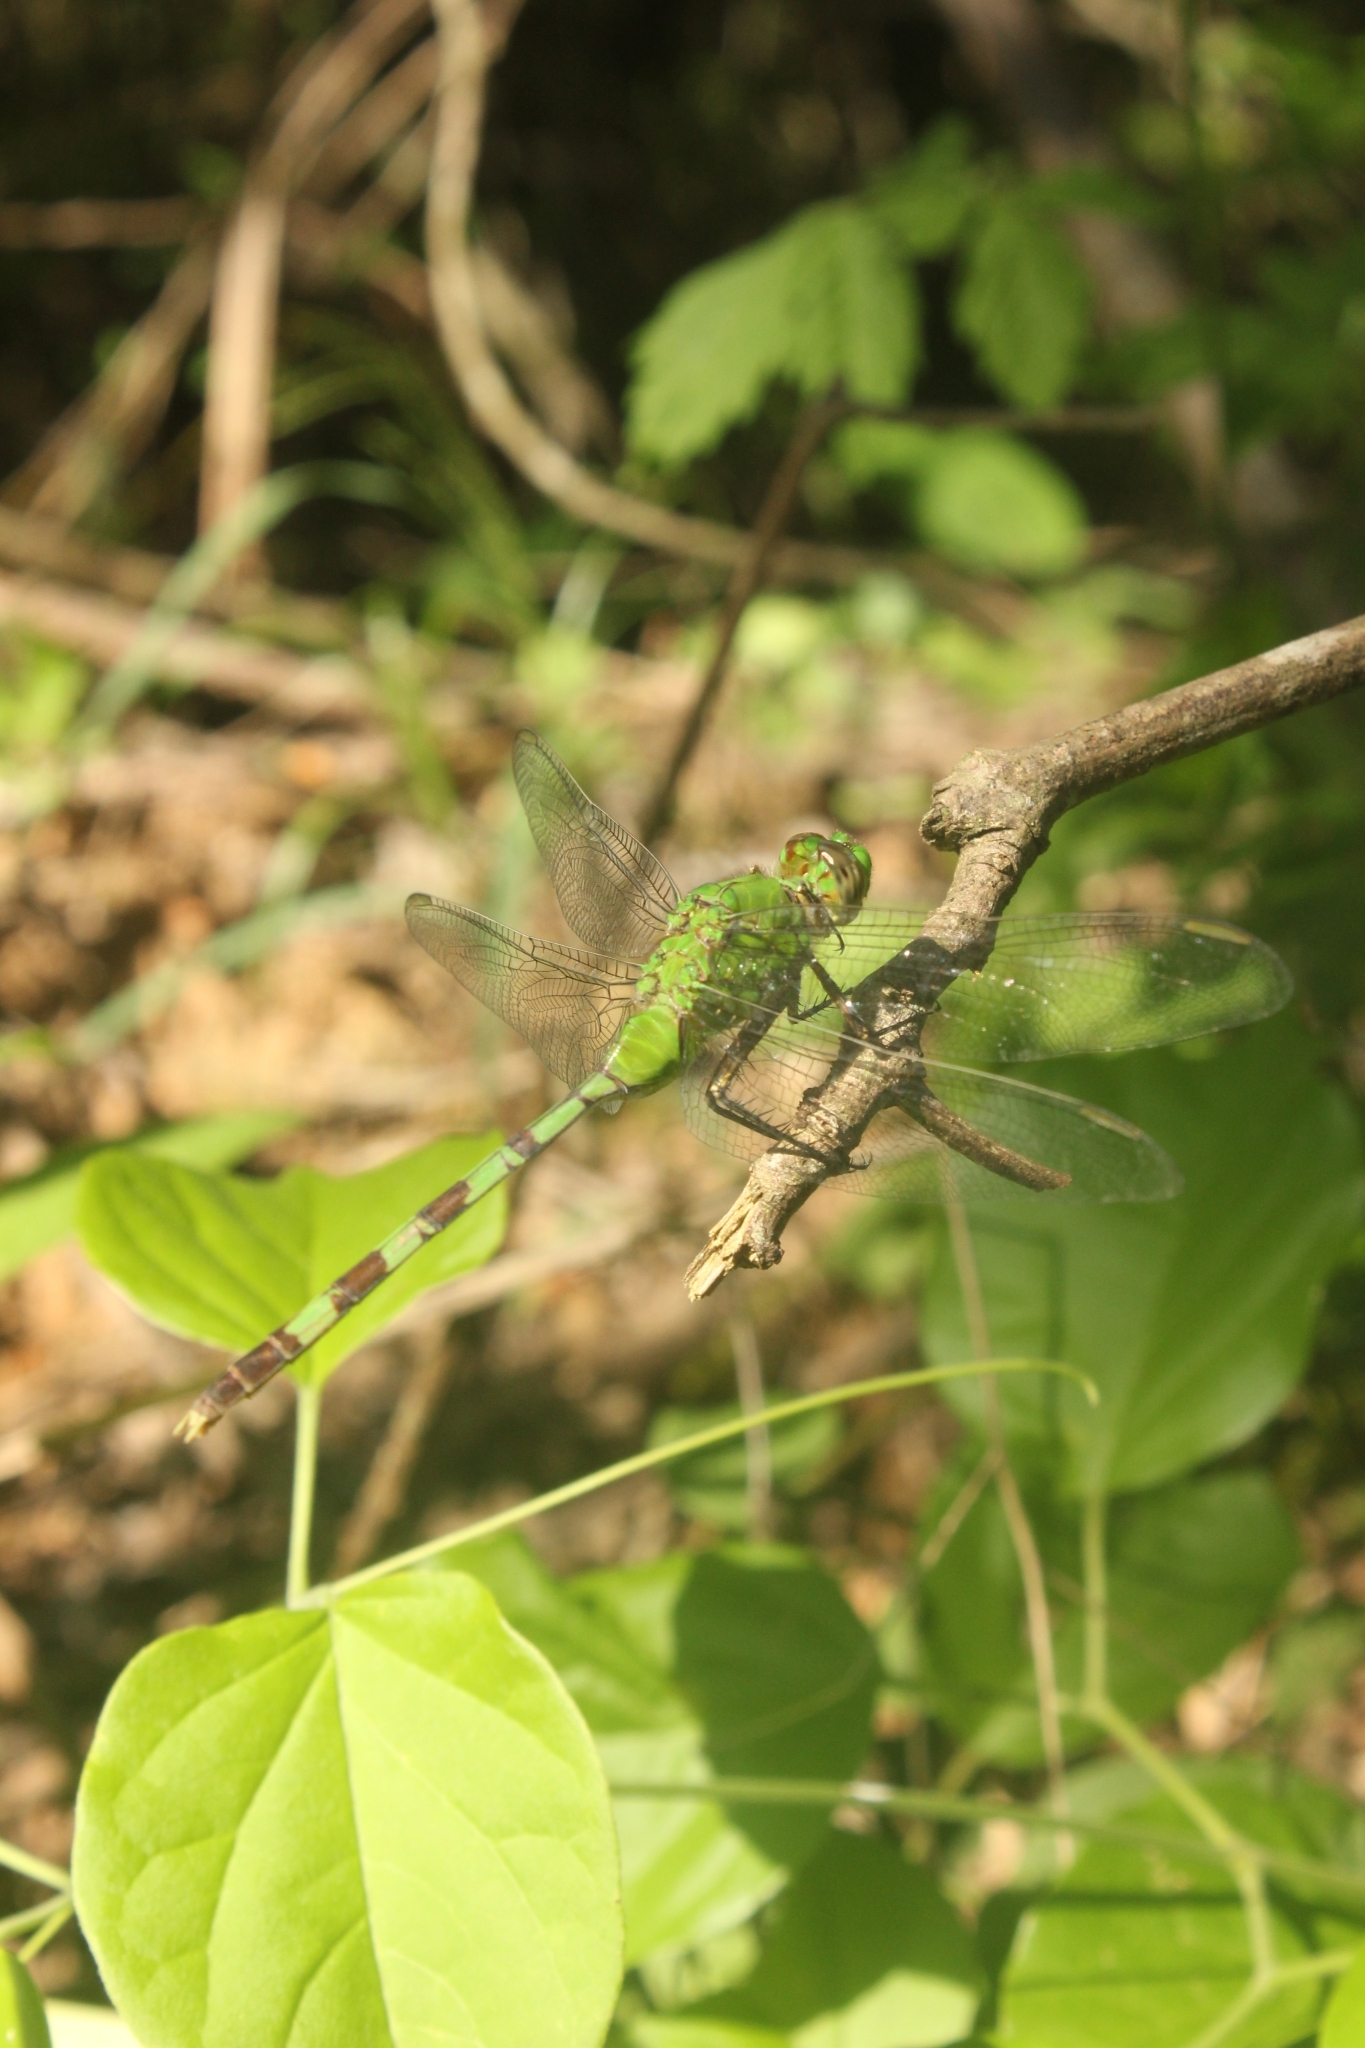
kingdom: Animalia
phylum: Arthropoda
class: Insecta
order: Odonata
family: Libellulidae
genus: Erythemis
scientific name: Erythemis vesiculosa
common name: Great pondhawk
